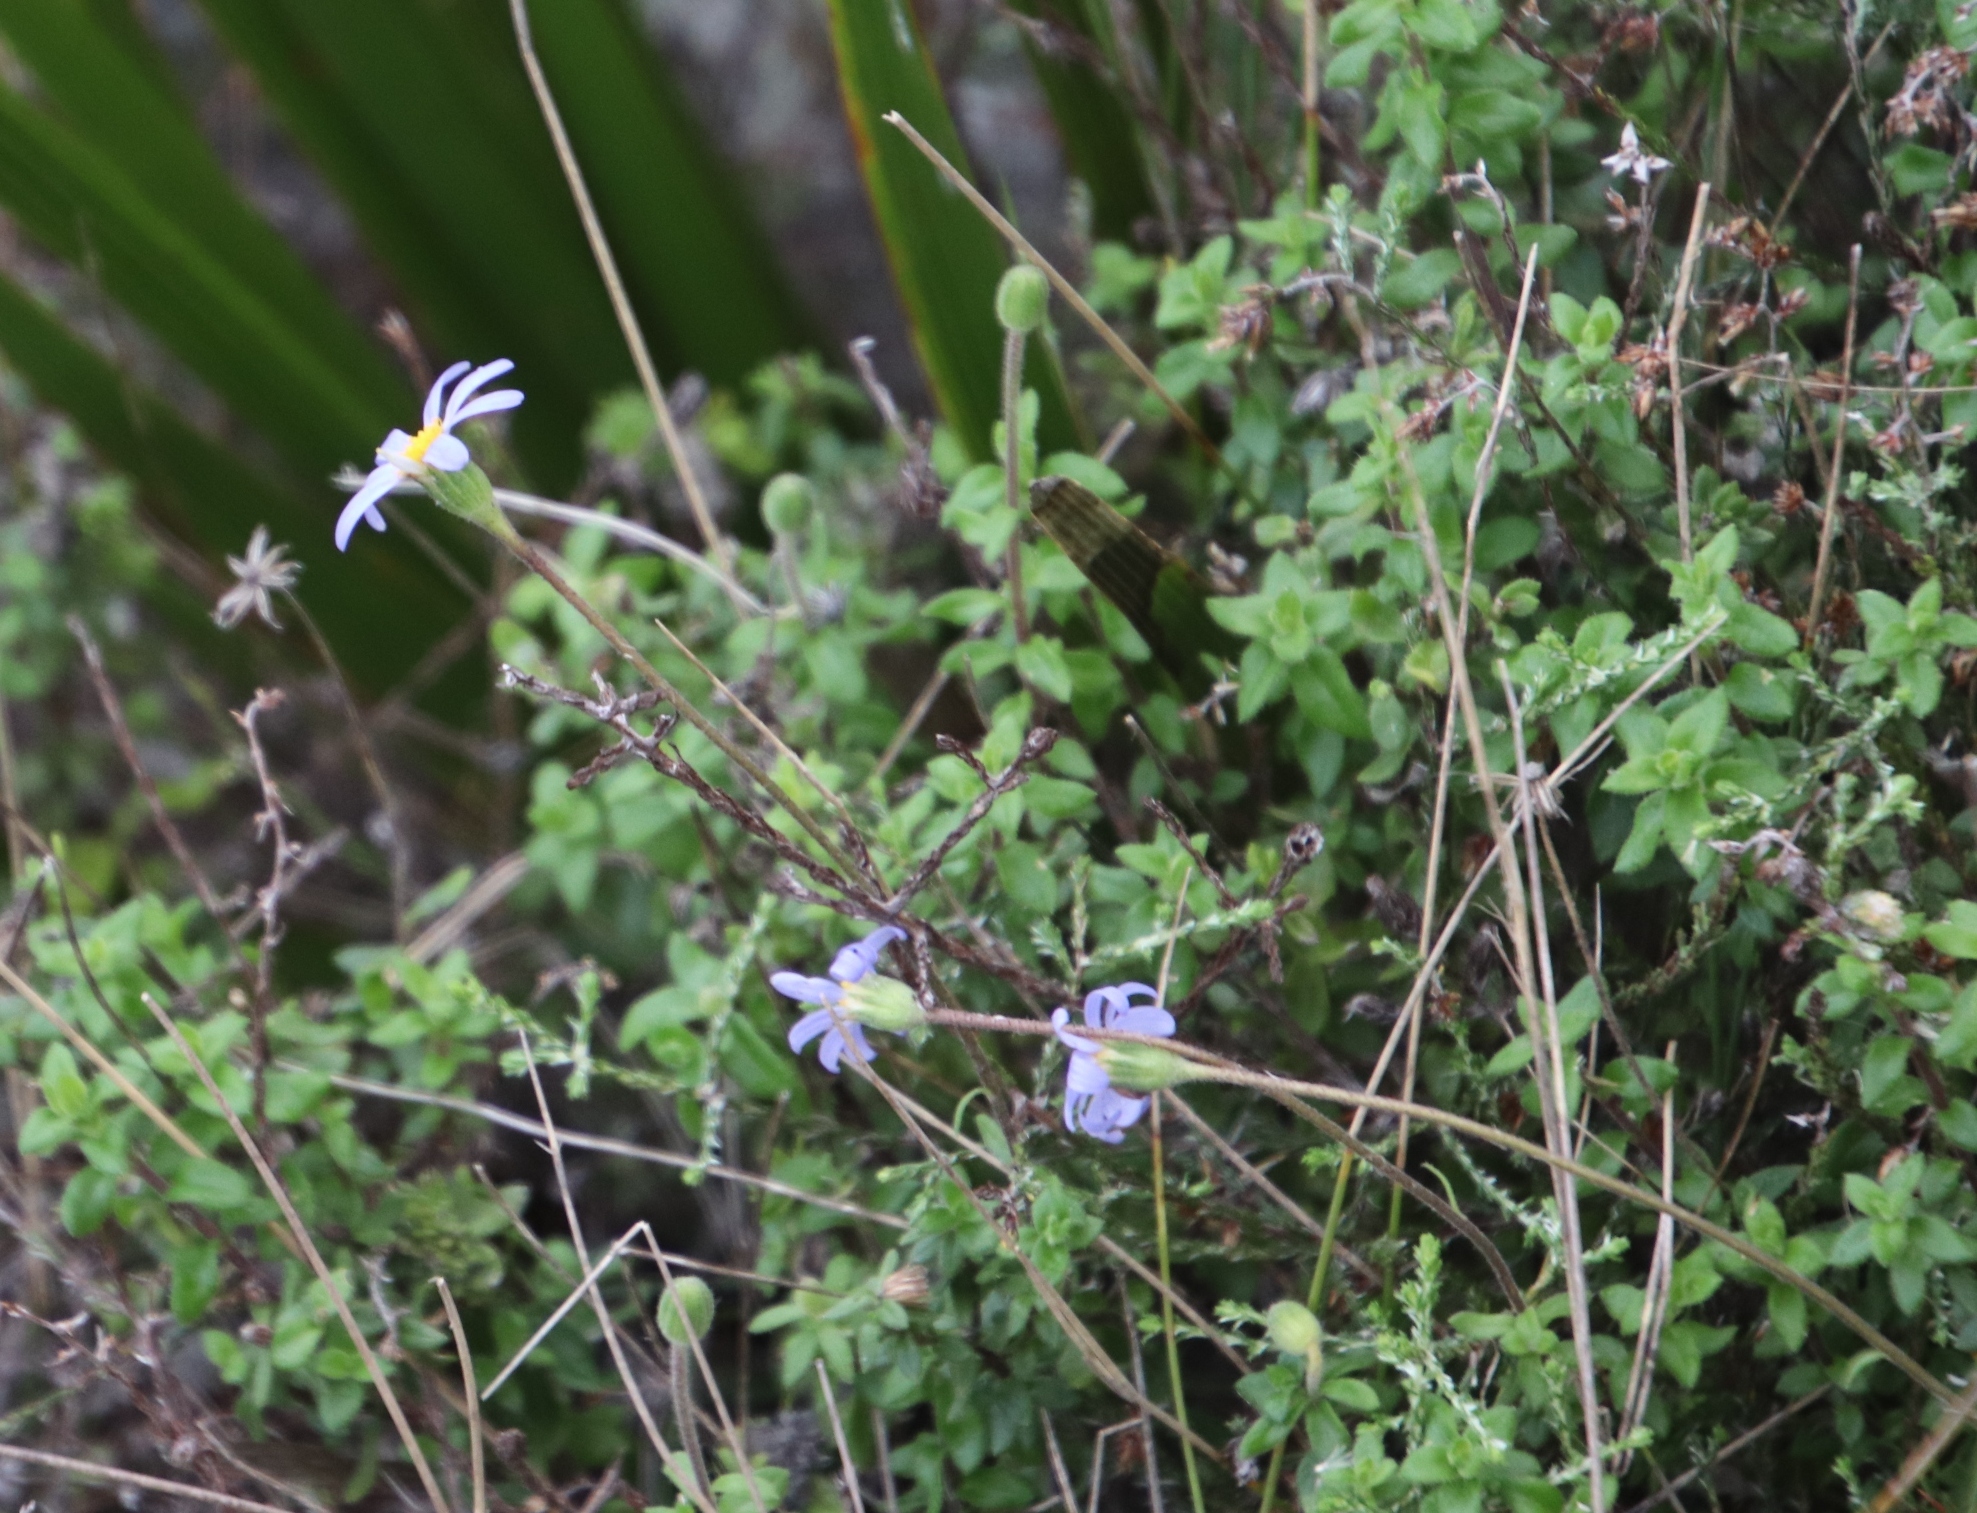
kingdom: Plantae
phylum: Tracheophyta
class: Magnoliopsida
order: Asterales
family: Asteraceae
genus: Felicia
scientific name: Felicia aethiopica
